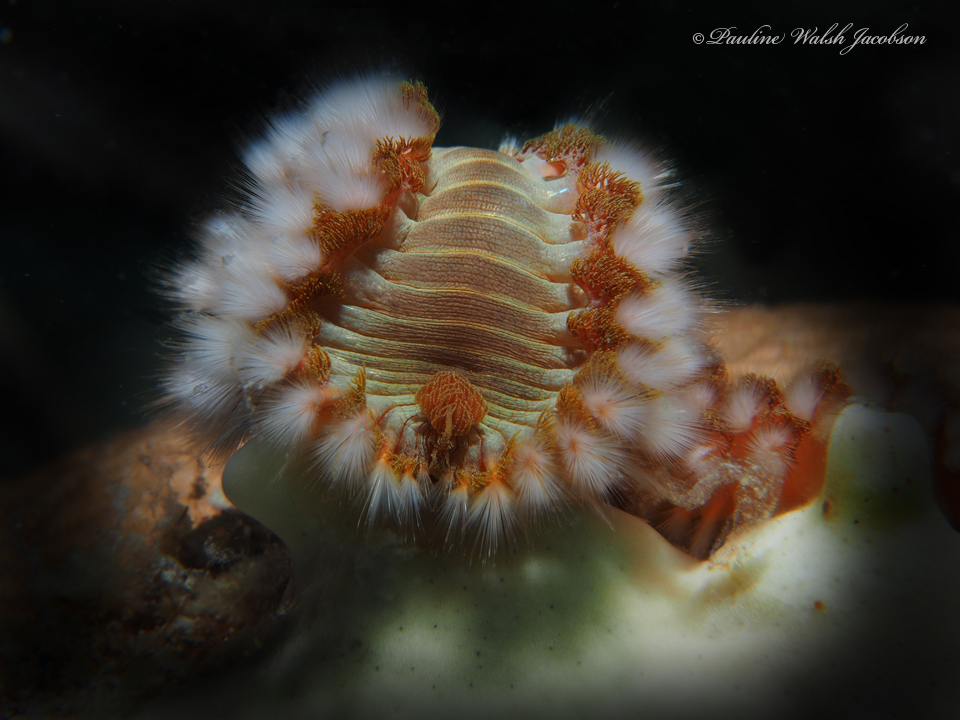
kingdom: Animalia
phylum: Annelida
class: Polychaeta
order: Amphinomida
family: Amphinomidae
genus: Hermodice
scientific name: Hermodice carunculata
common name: Bearded fireworm
